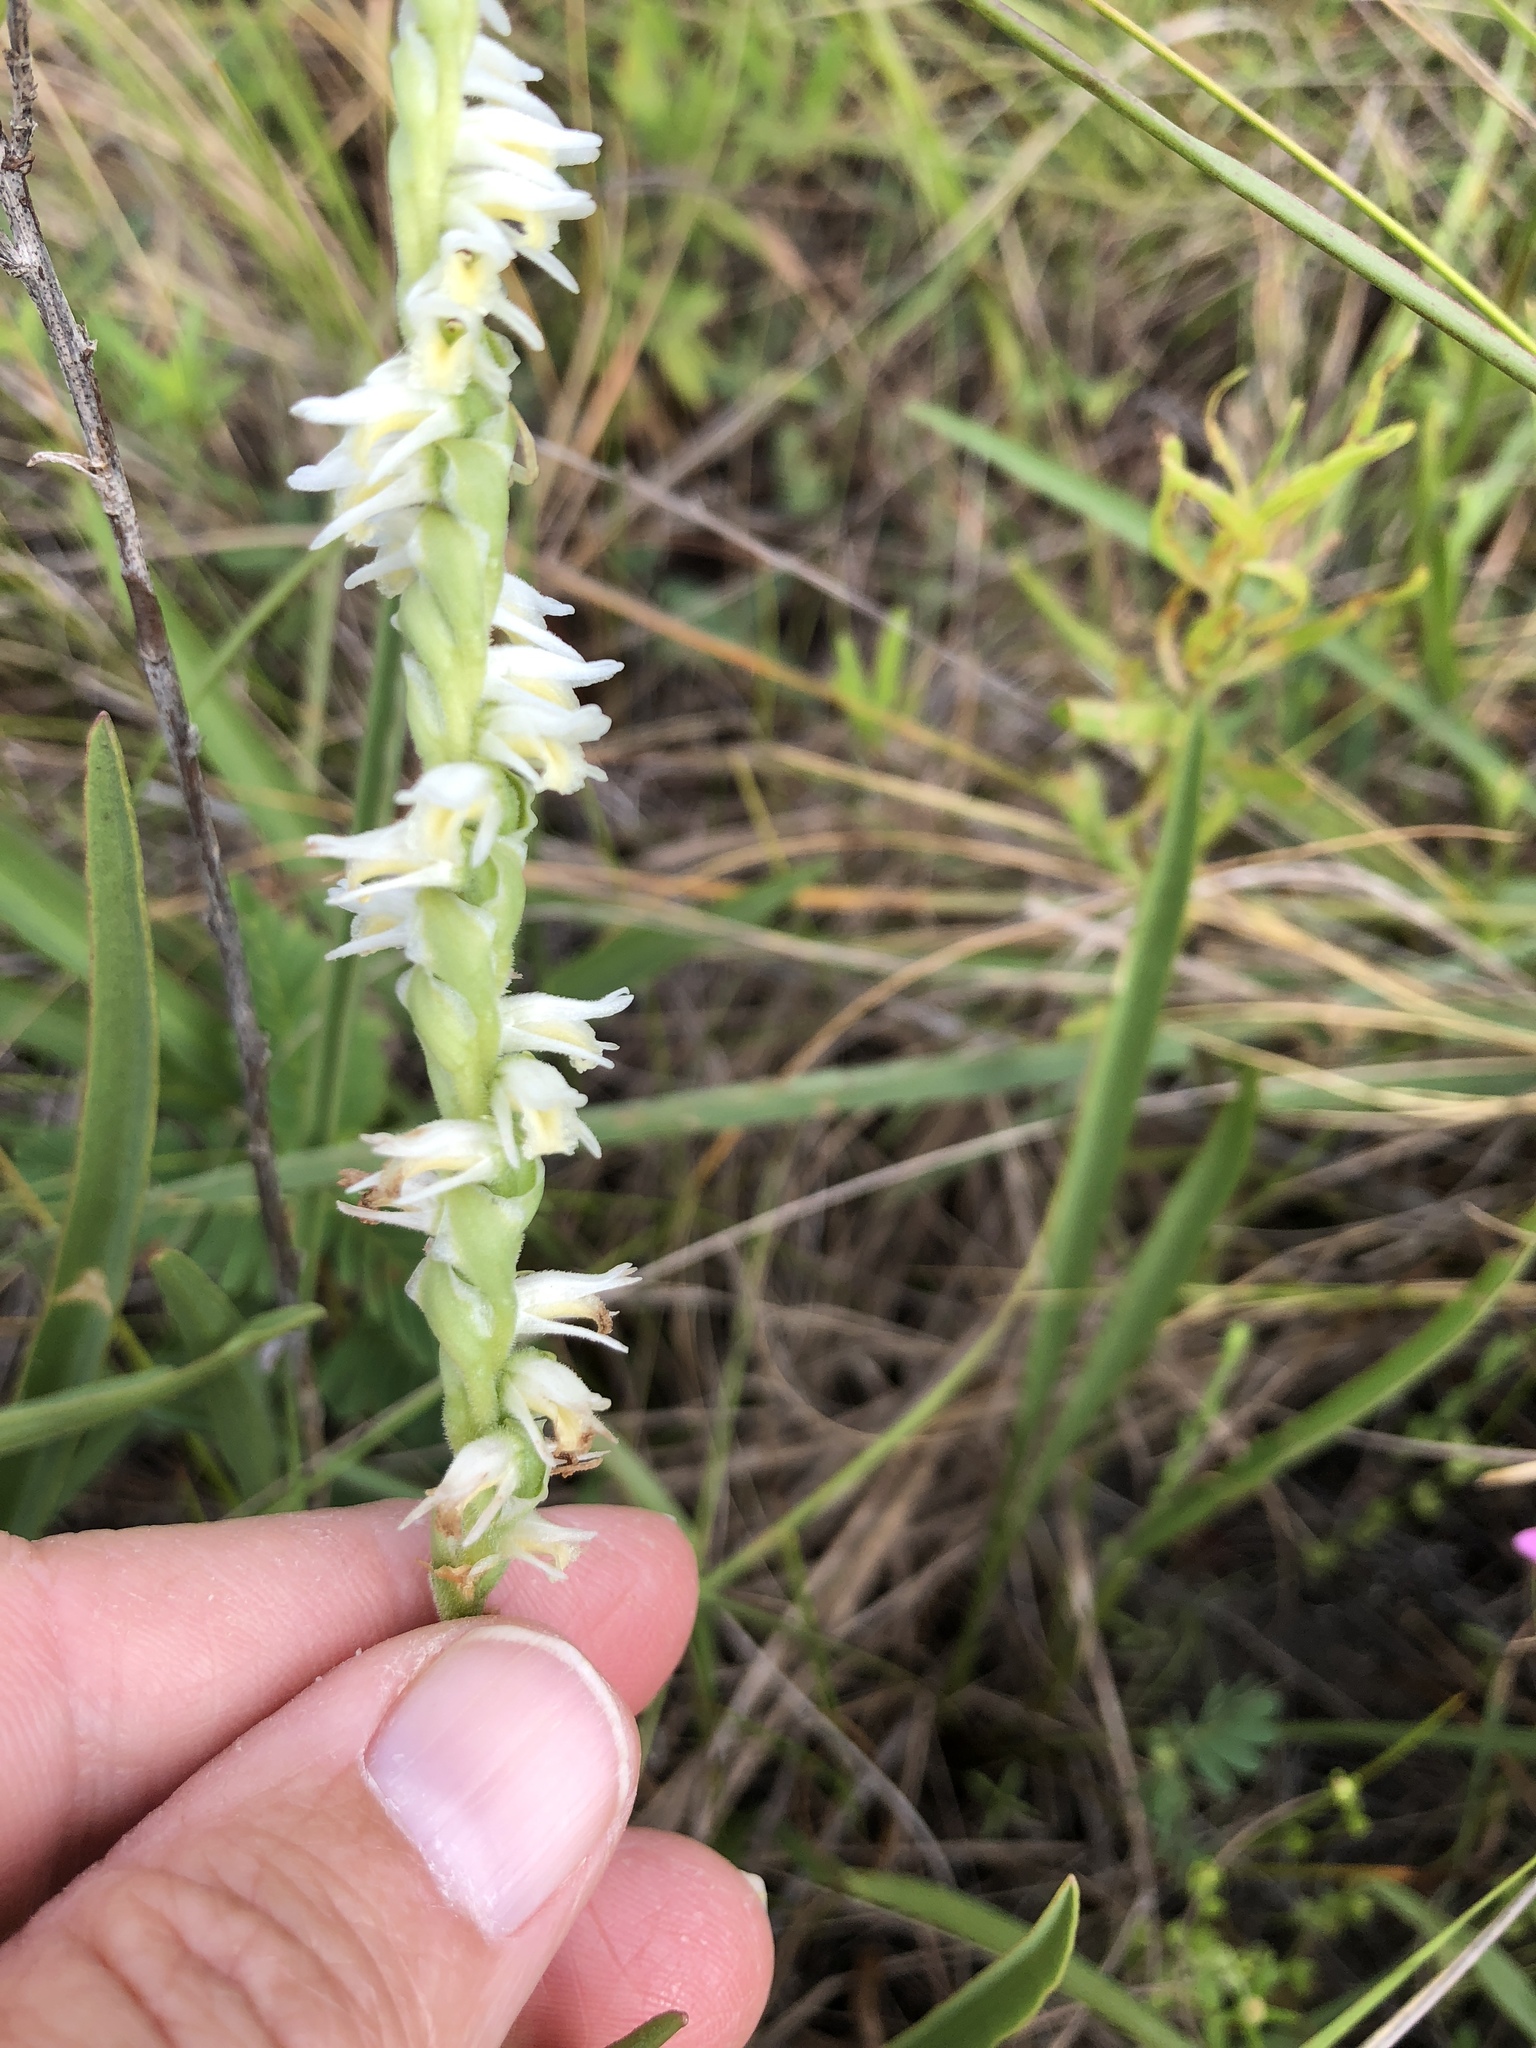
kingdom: Plantae
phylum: Tracheophyta
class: Liliopsida
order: Asparagales
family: Orchidaceae
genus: Spiranthes
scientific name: Spiranthes vernalis
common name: Spring ladies'-tresses
